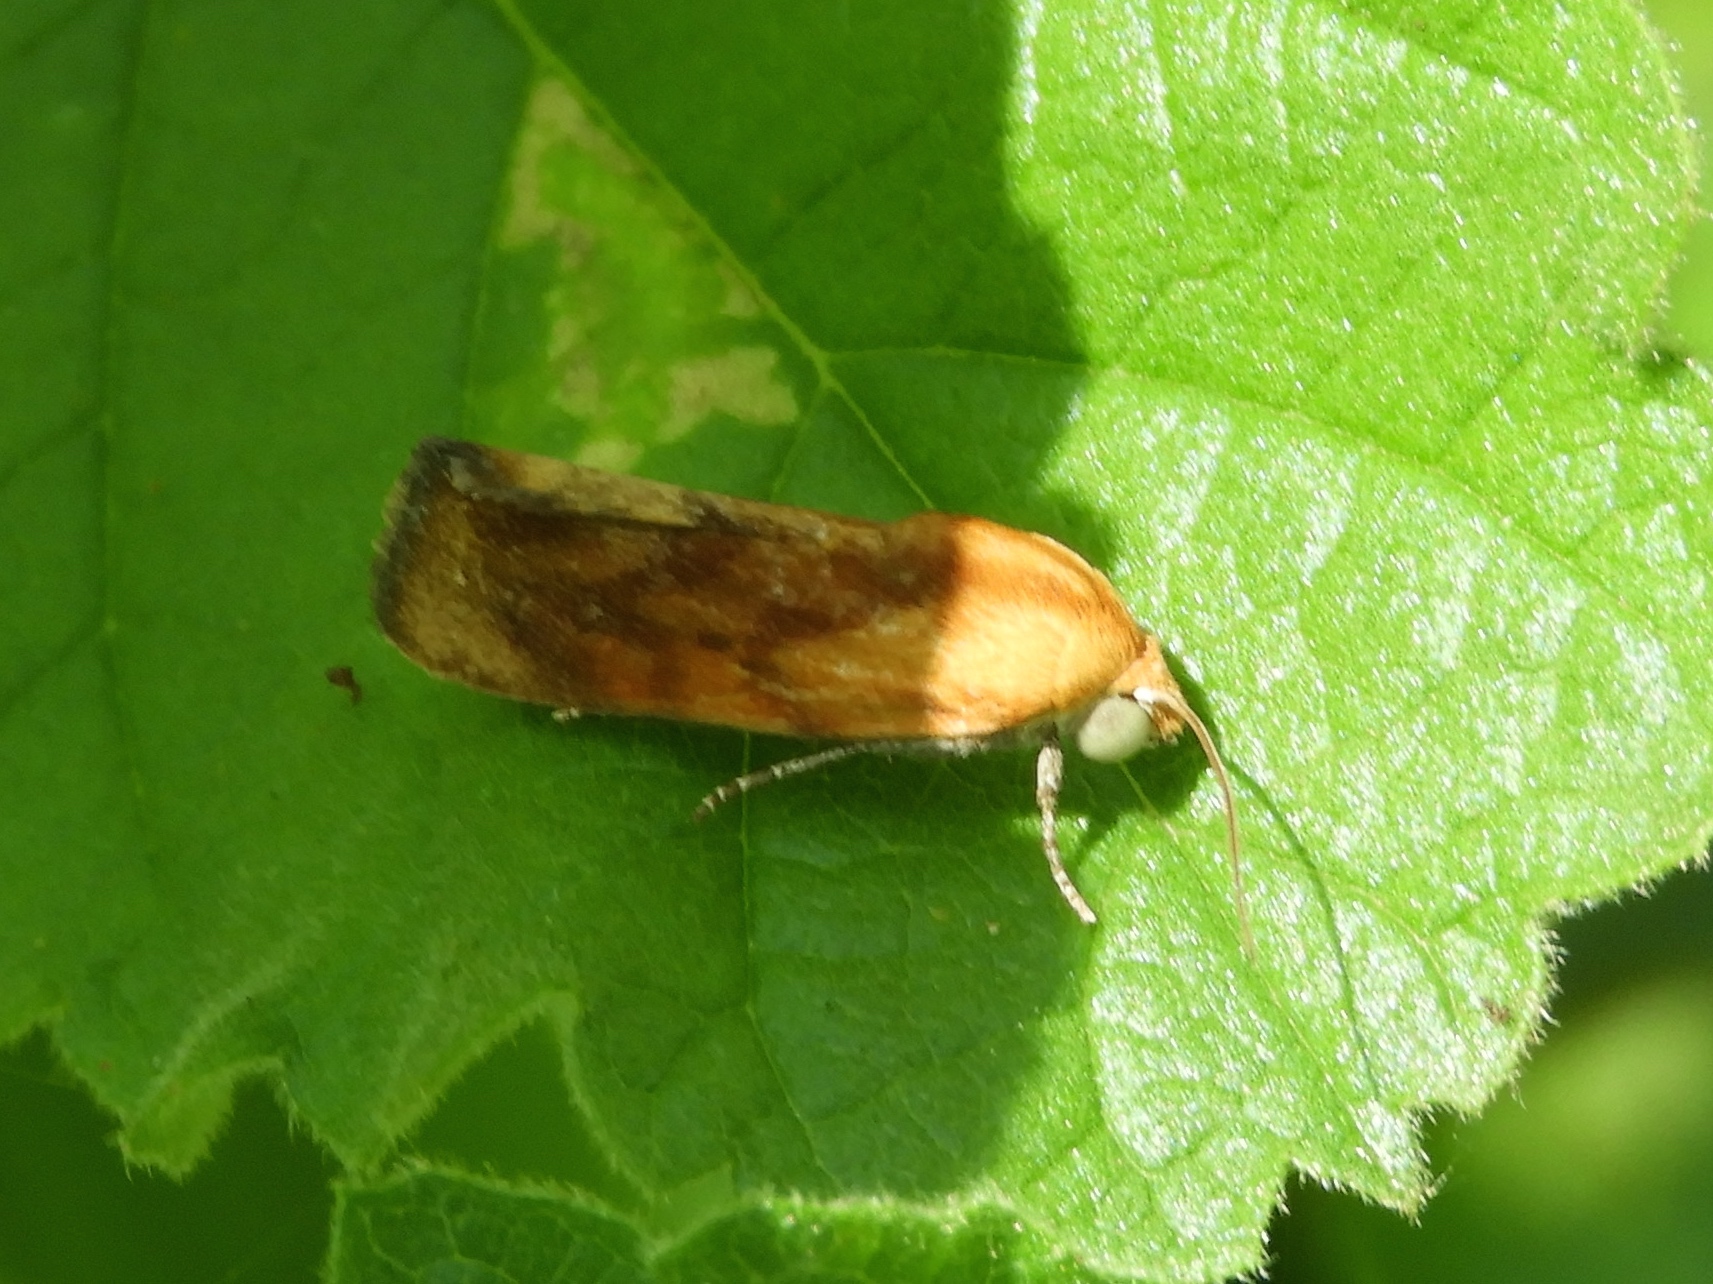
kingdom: Animalia
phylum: Arthropoda
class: Insecta
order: Lepidoptera
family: Noctuidae
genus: Acontia
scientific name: Acontia exigua
